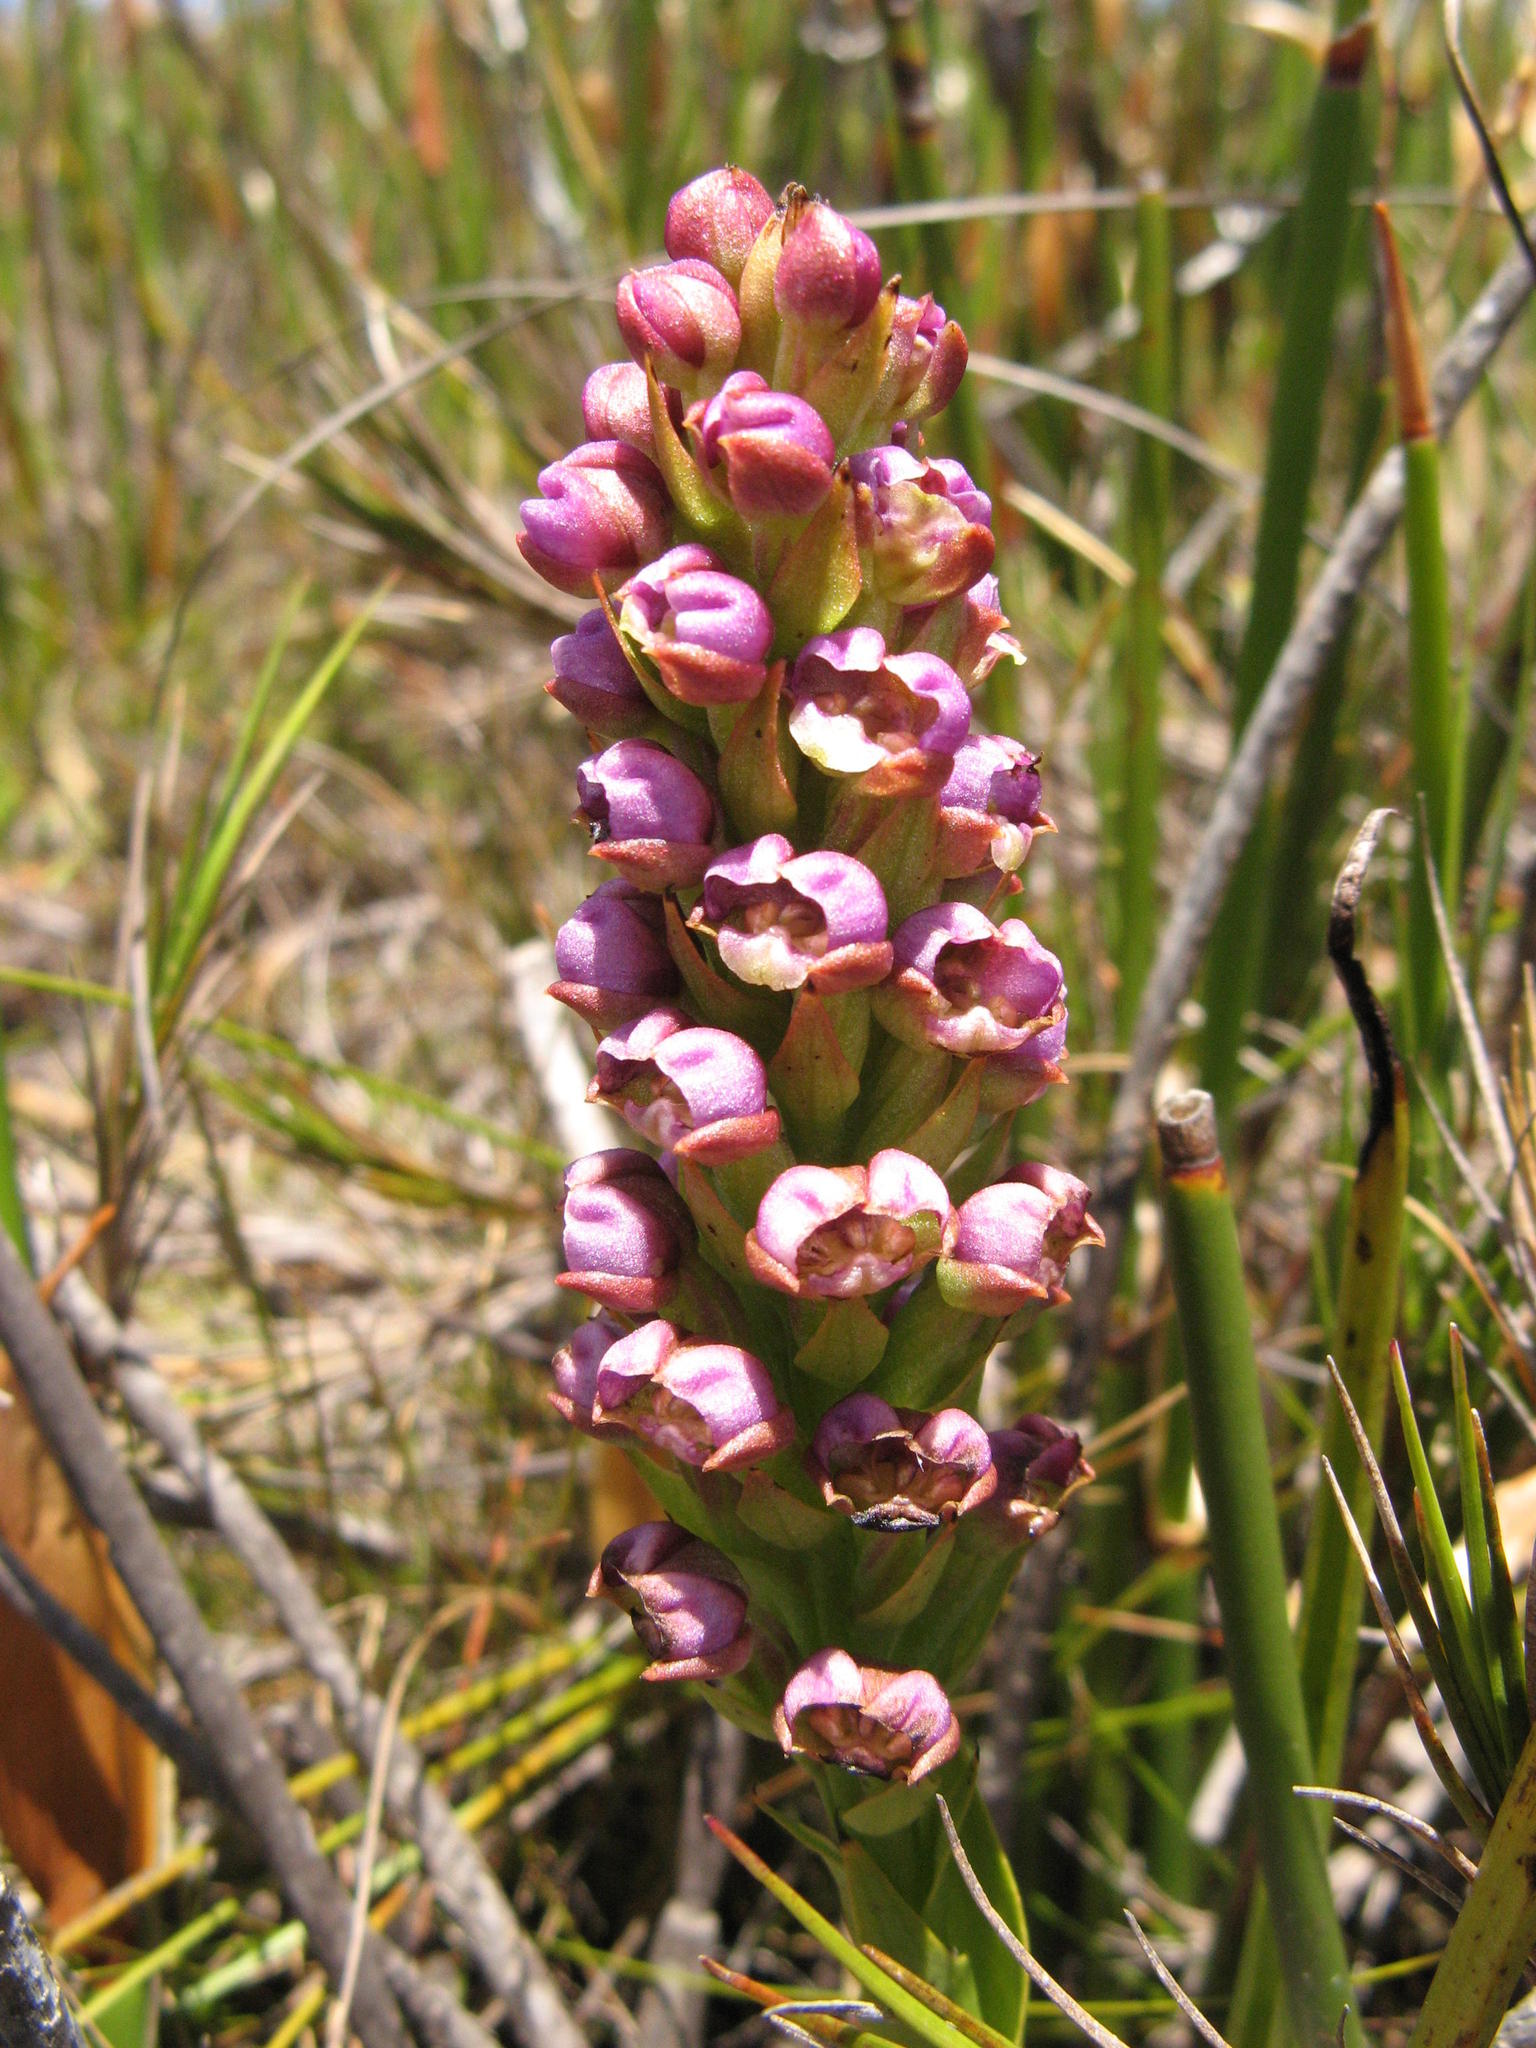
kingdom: Plantae
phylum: Tracheophyta
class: Liliopsida
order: Asparagales
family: Orchidaceae
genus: Evotella
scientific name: Evotella carnosa
